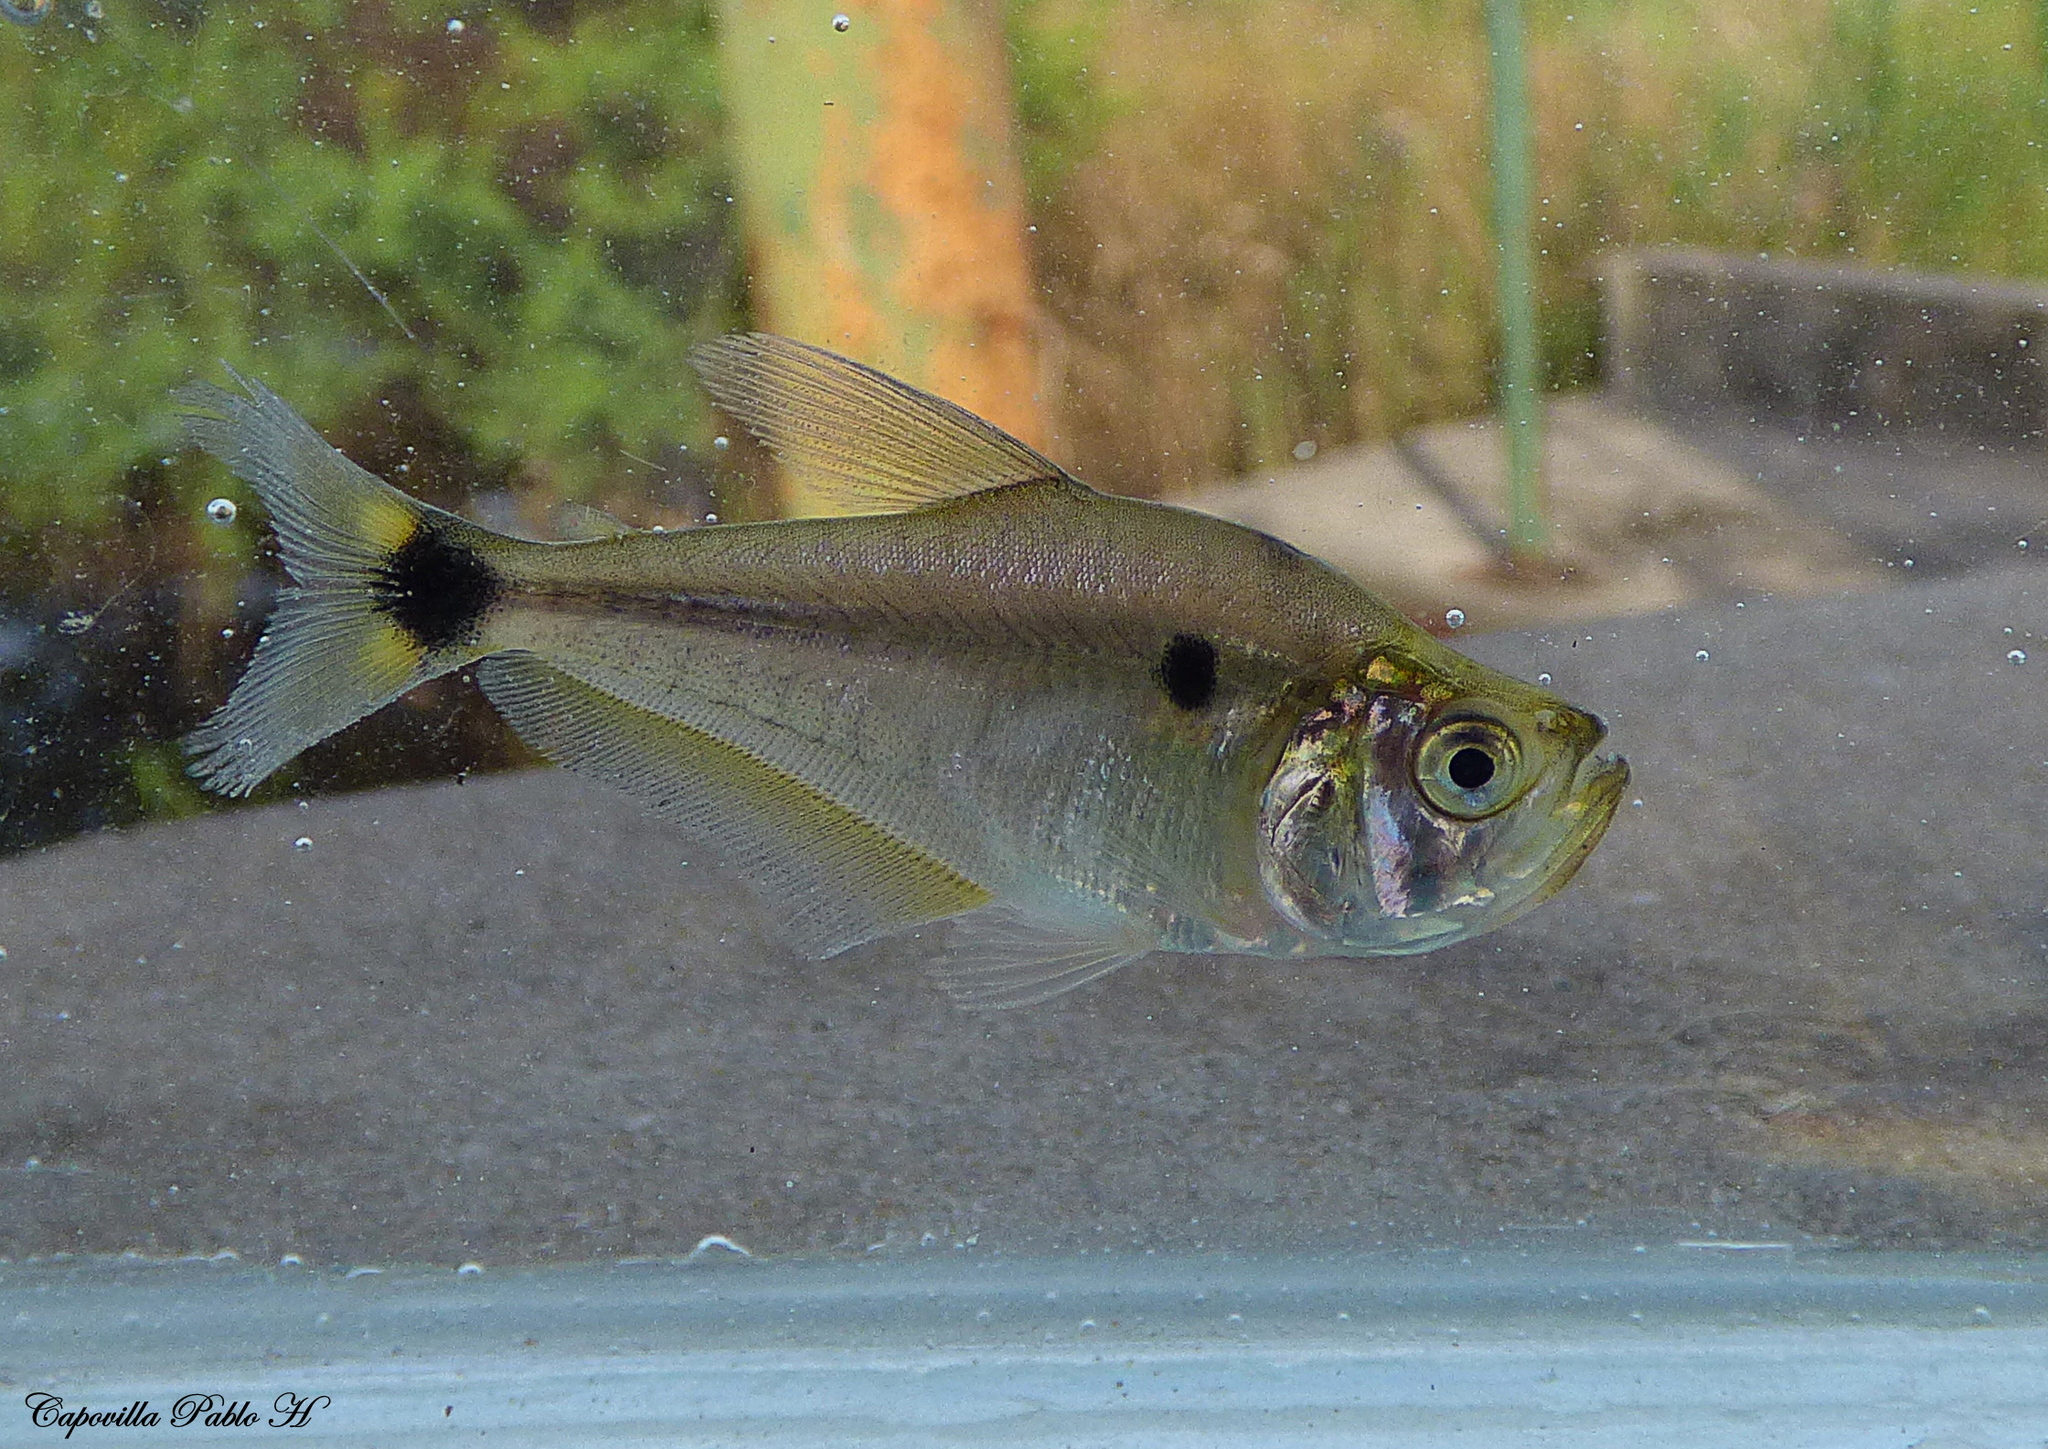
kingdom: Animalia
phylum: Chordata
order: Characiformes
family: Characidae
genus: Cynopotamus
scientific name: Cynopotamus kincaidi
